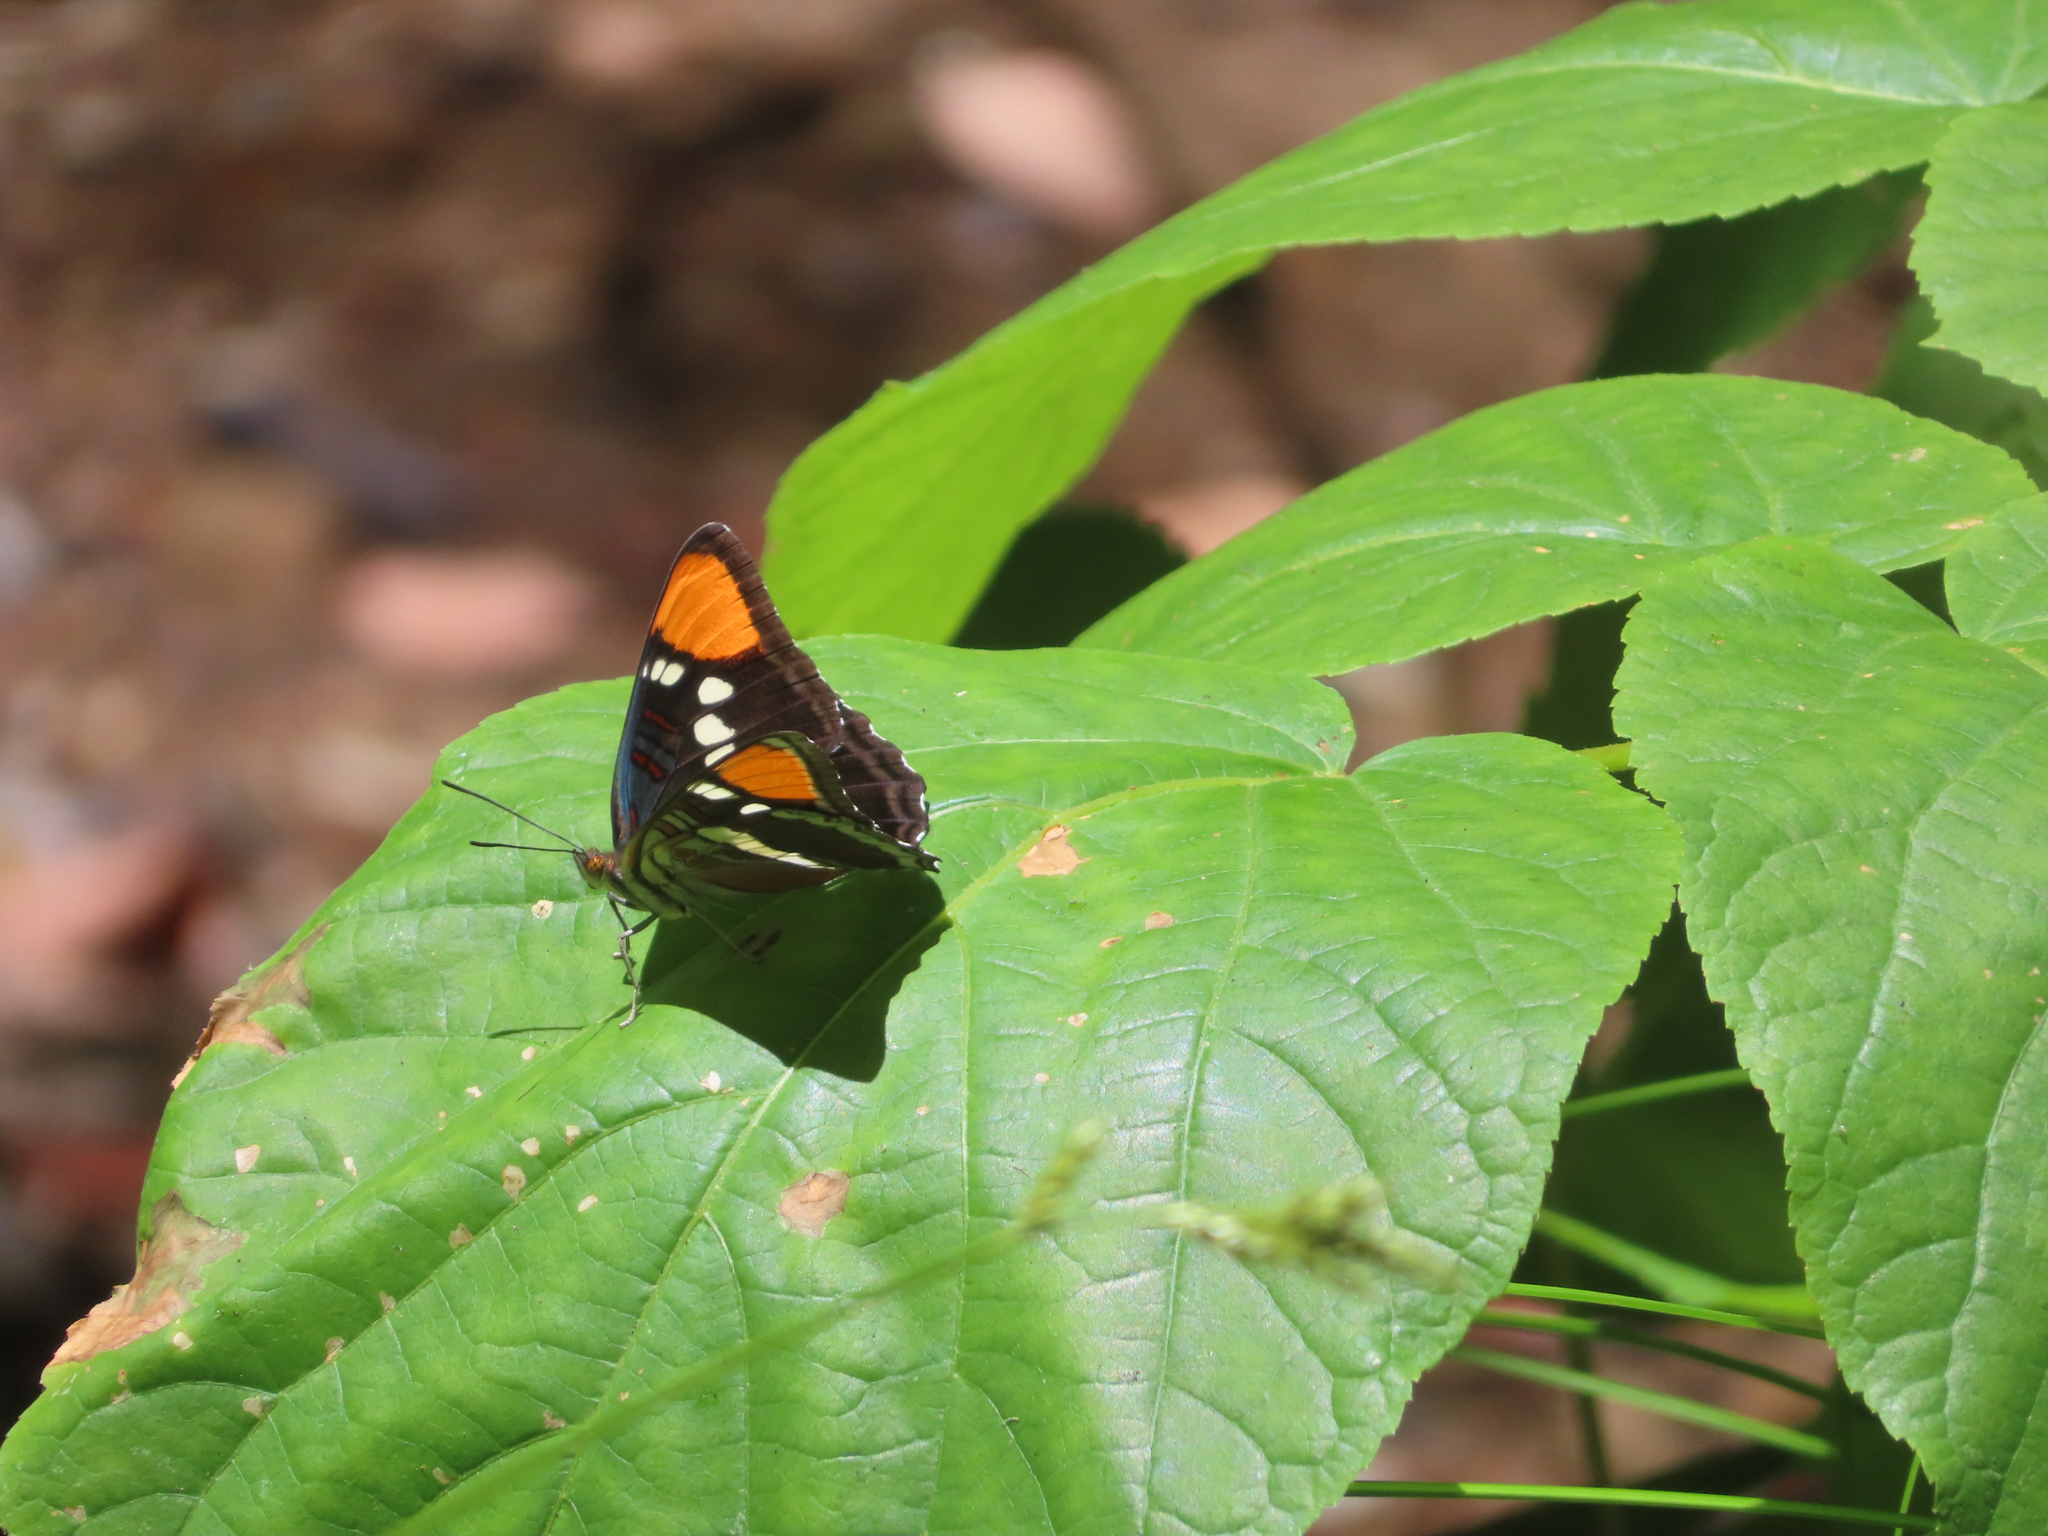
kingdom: Animalia
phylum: Arthropoda
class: Insecta
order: Lepidoptera
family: Nymphalidae
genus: Limenitis
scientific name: Limenitis bredowii
